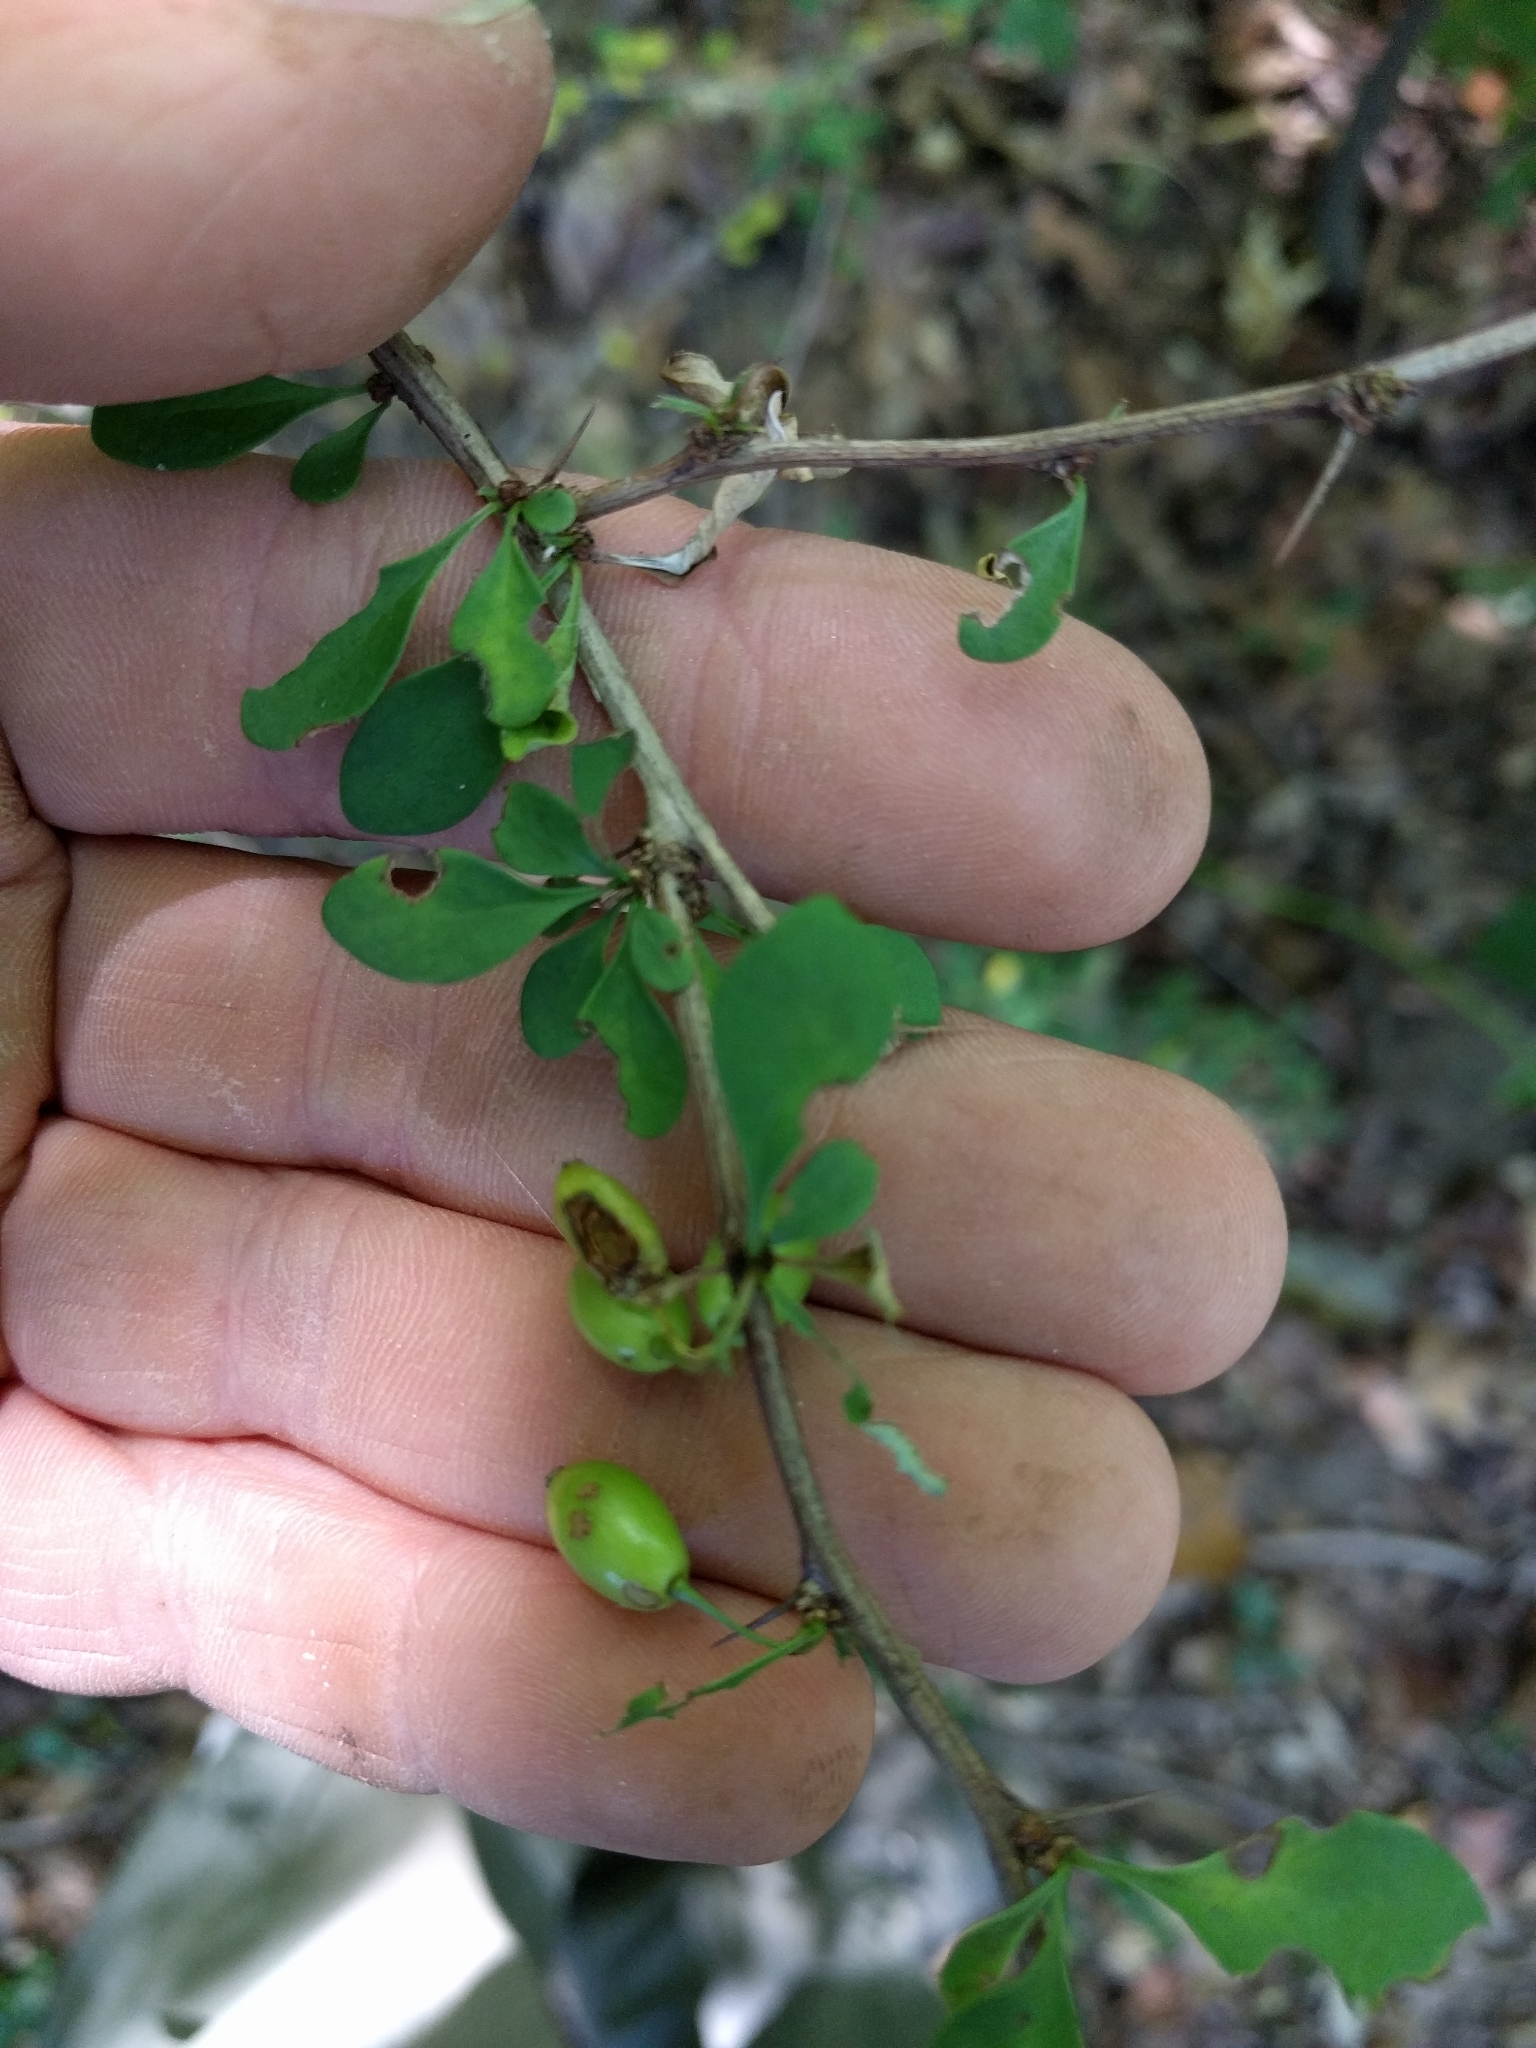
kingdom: Plantae
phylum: Tracheophyta
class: Magnoliopsida
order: Ranunculales
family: Berberidaceae
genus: Berberis
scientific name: Berberis thunbergii
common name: Japanese barberry
